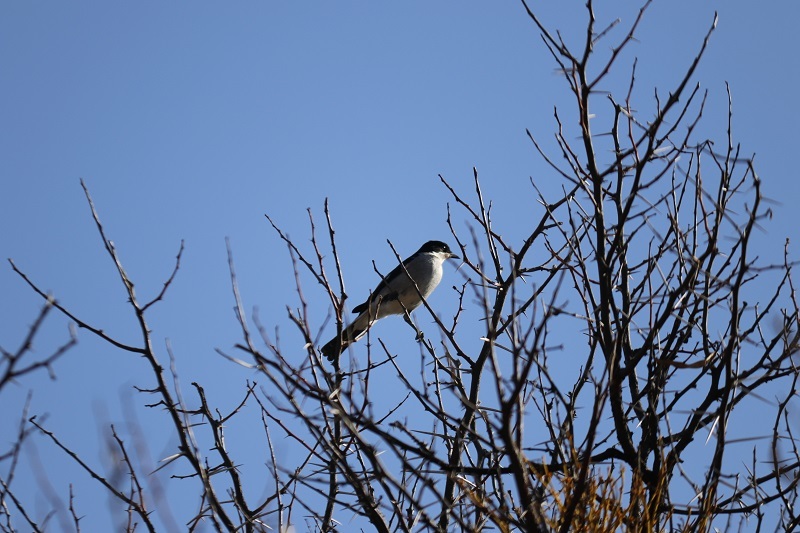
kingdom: Animalia
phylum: Chordata
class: Aves
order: Passeriformes
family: Muscicapidae
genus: Sigelus
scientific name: Sigelus silens
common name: Fiscal flycatcher
